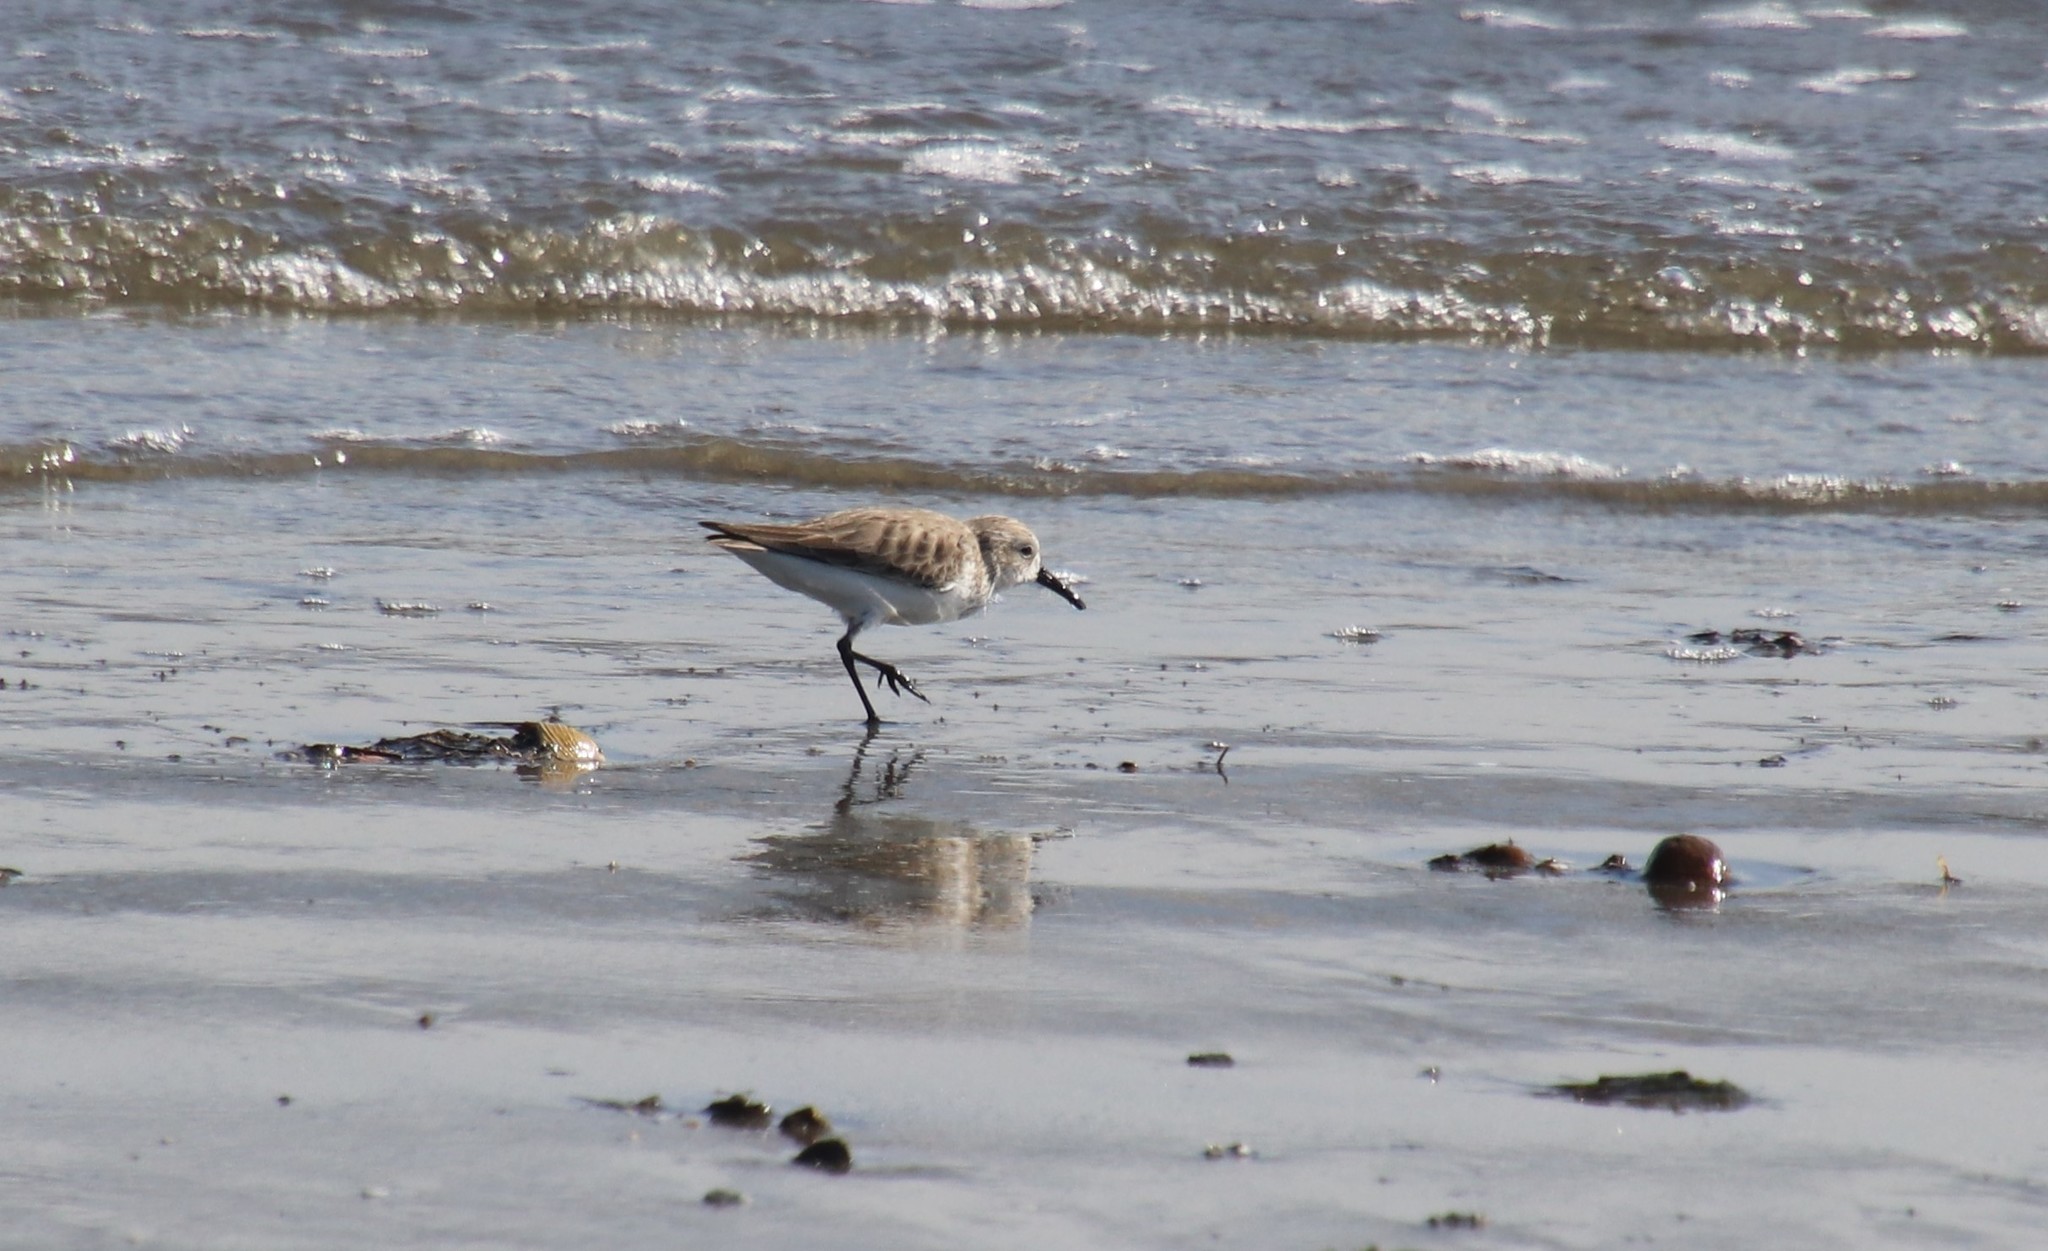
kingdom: Animalia
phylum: Chordata
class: Aves
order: Charadriiformes
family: Scolopacidae
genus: Calidris
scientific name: Calidris mauri
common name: Western sandpiper
